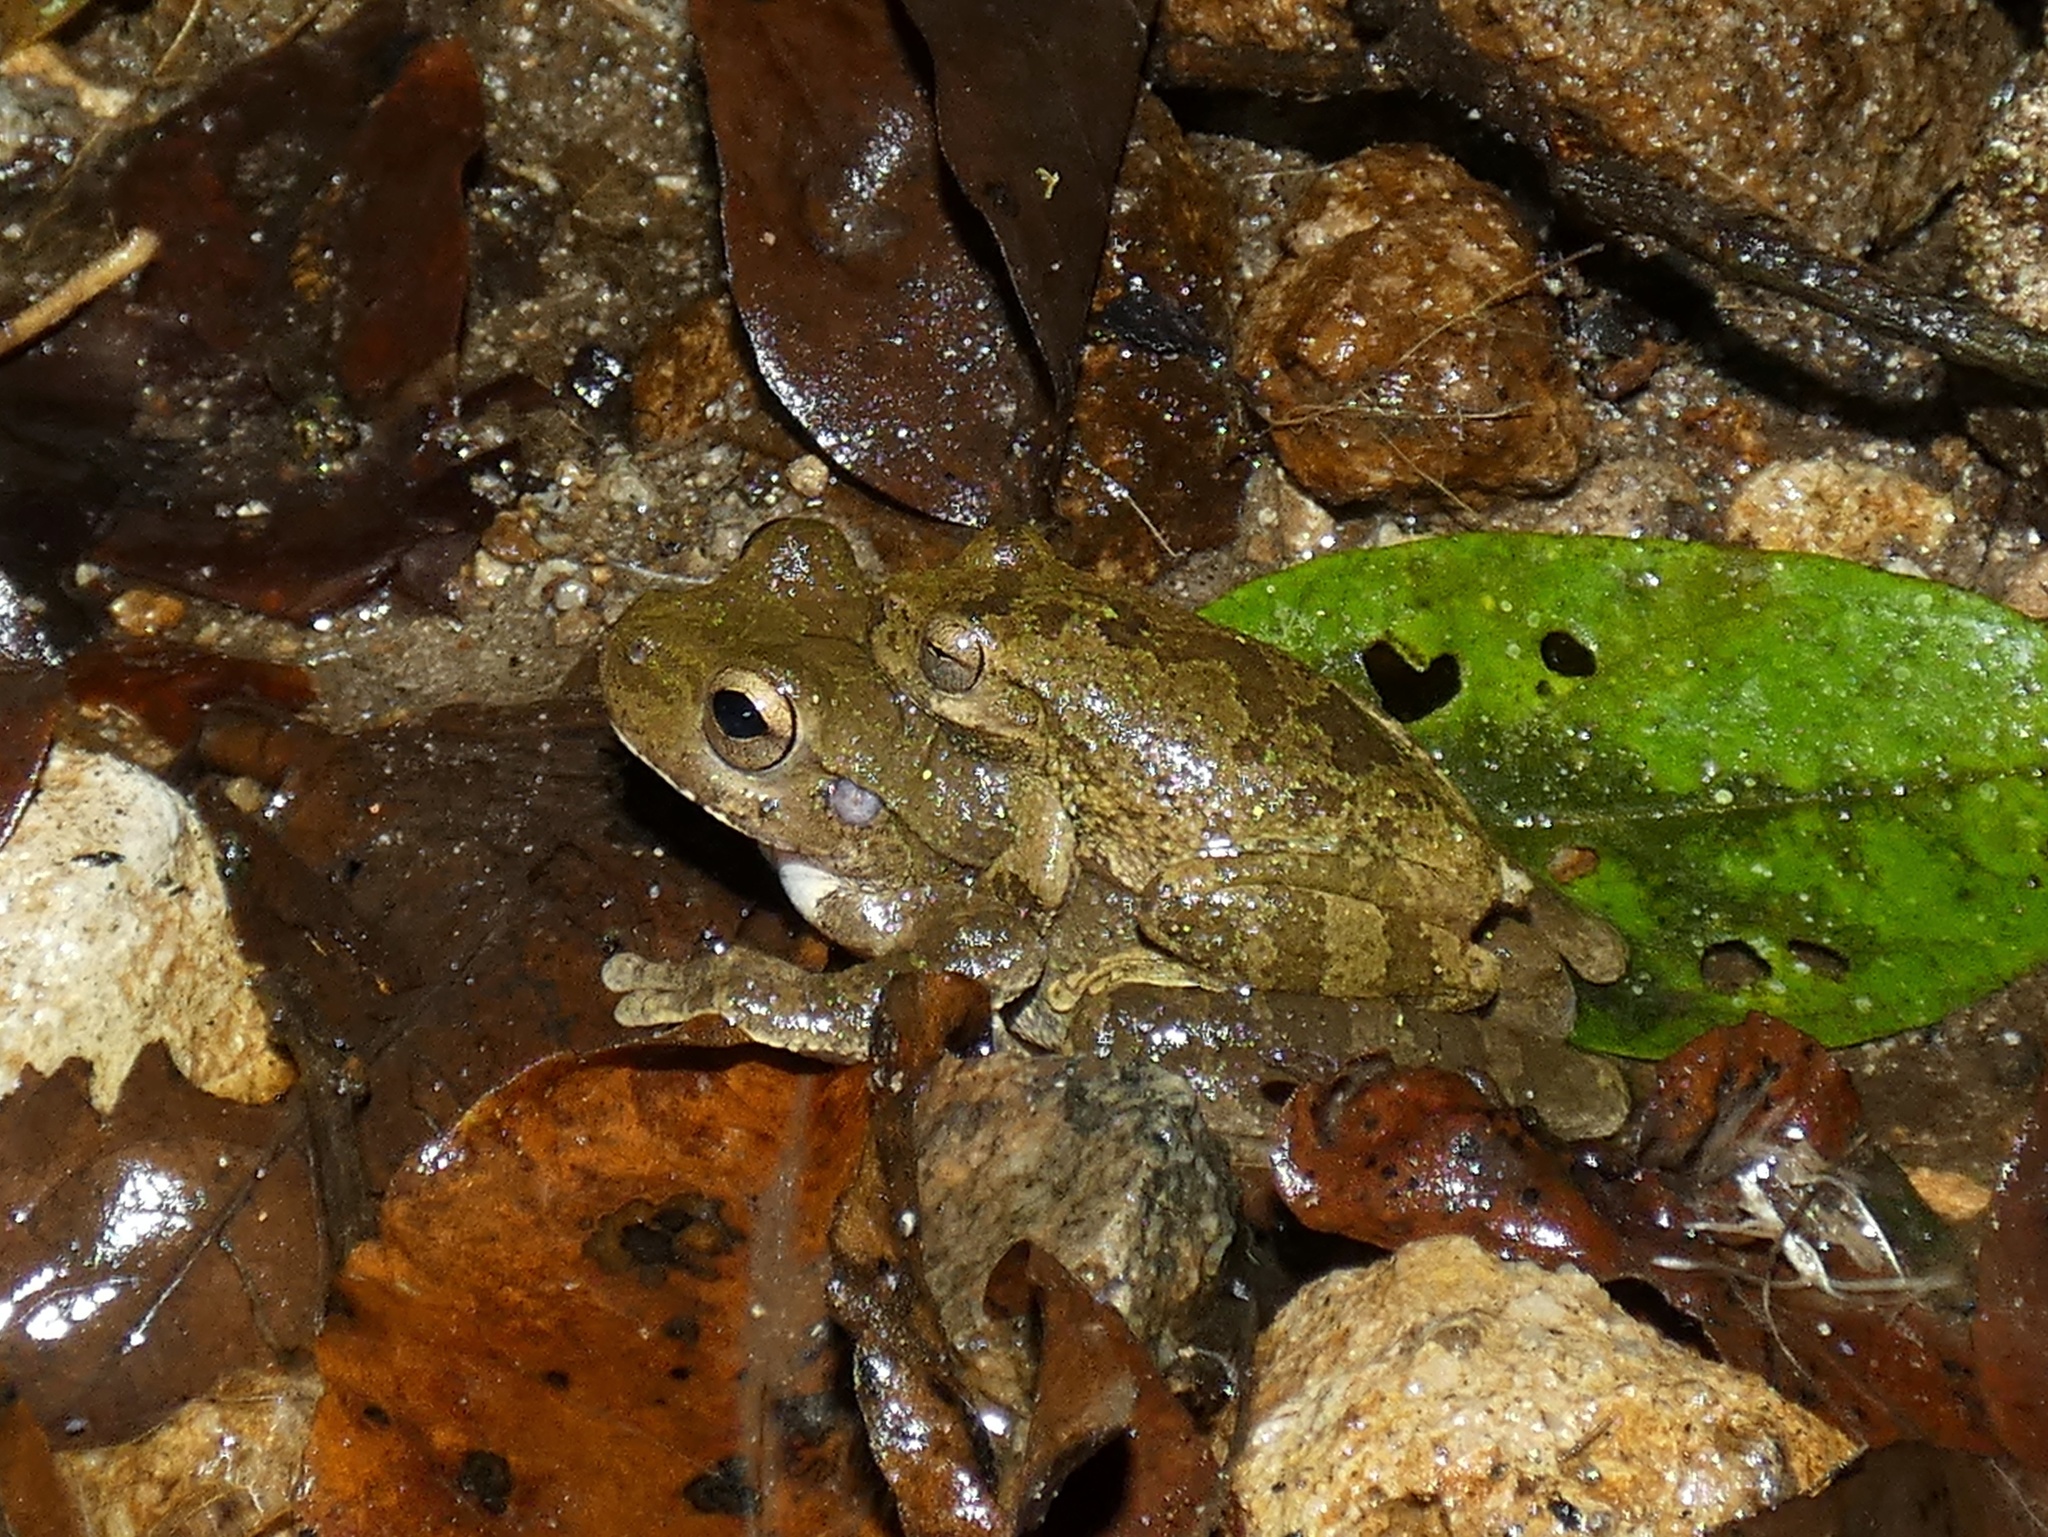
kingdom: Animalia
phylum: Chordata
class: Amphibia
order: Anura
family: Hylidae
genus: Smilisca
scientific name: Smilisca sordida
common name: Veragua cross-banded treefrog
